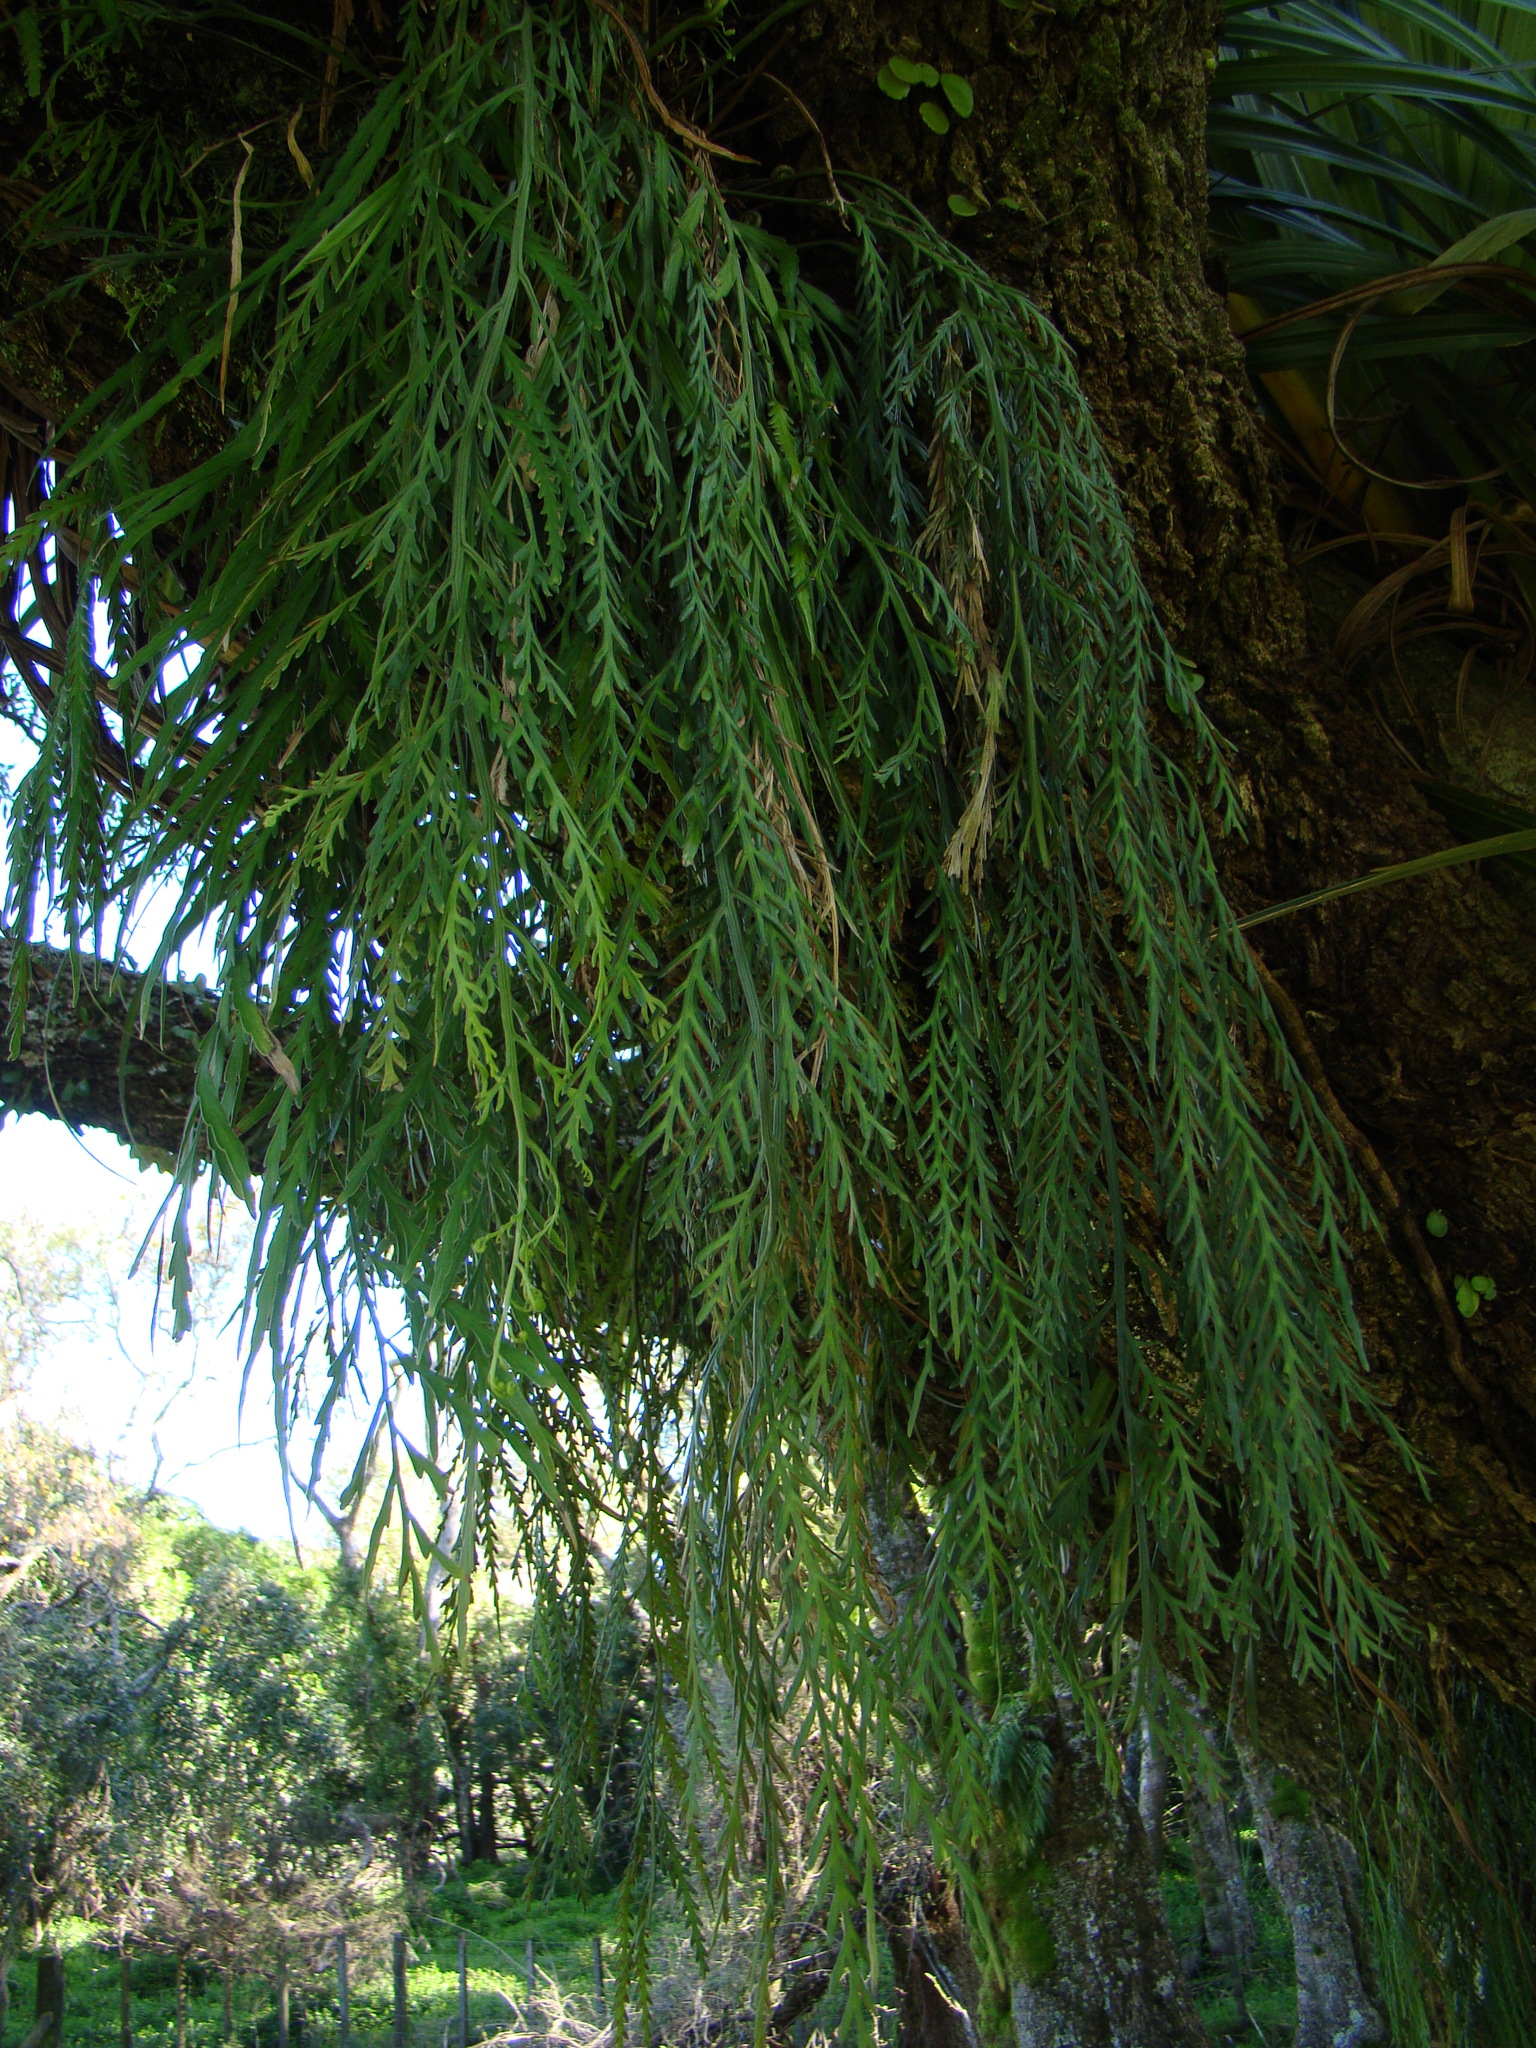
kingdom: Plantae
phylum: Tracheophyta
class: Polypodiopsida
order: Polypodiales
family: Aspleniaceae
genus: Asplenium
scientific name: Asplenium flaccidum
